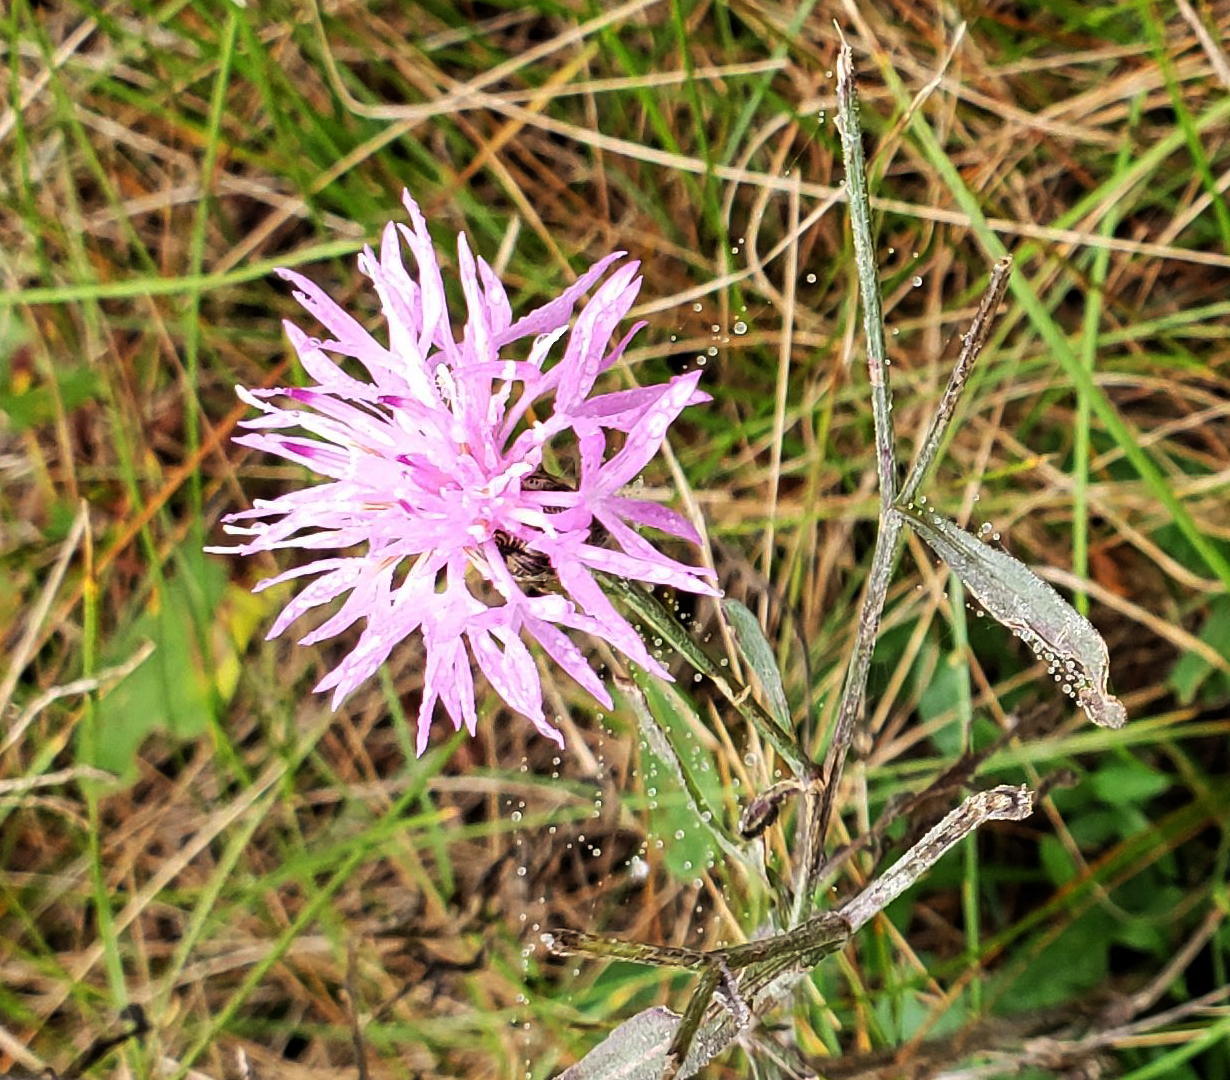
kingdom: Plantae
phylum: Tracheophyta
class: Magnoliopsida
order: Asterales
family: Asteraceae
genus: Centaurea
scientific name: Centaurea stoebe
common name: Spotted knapweed
